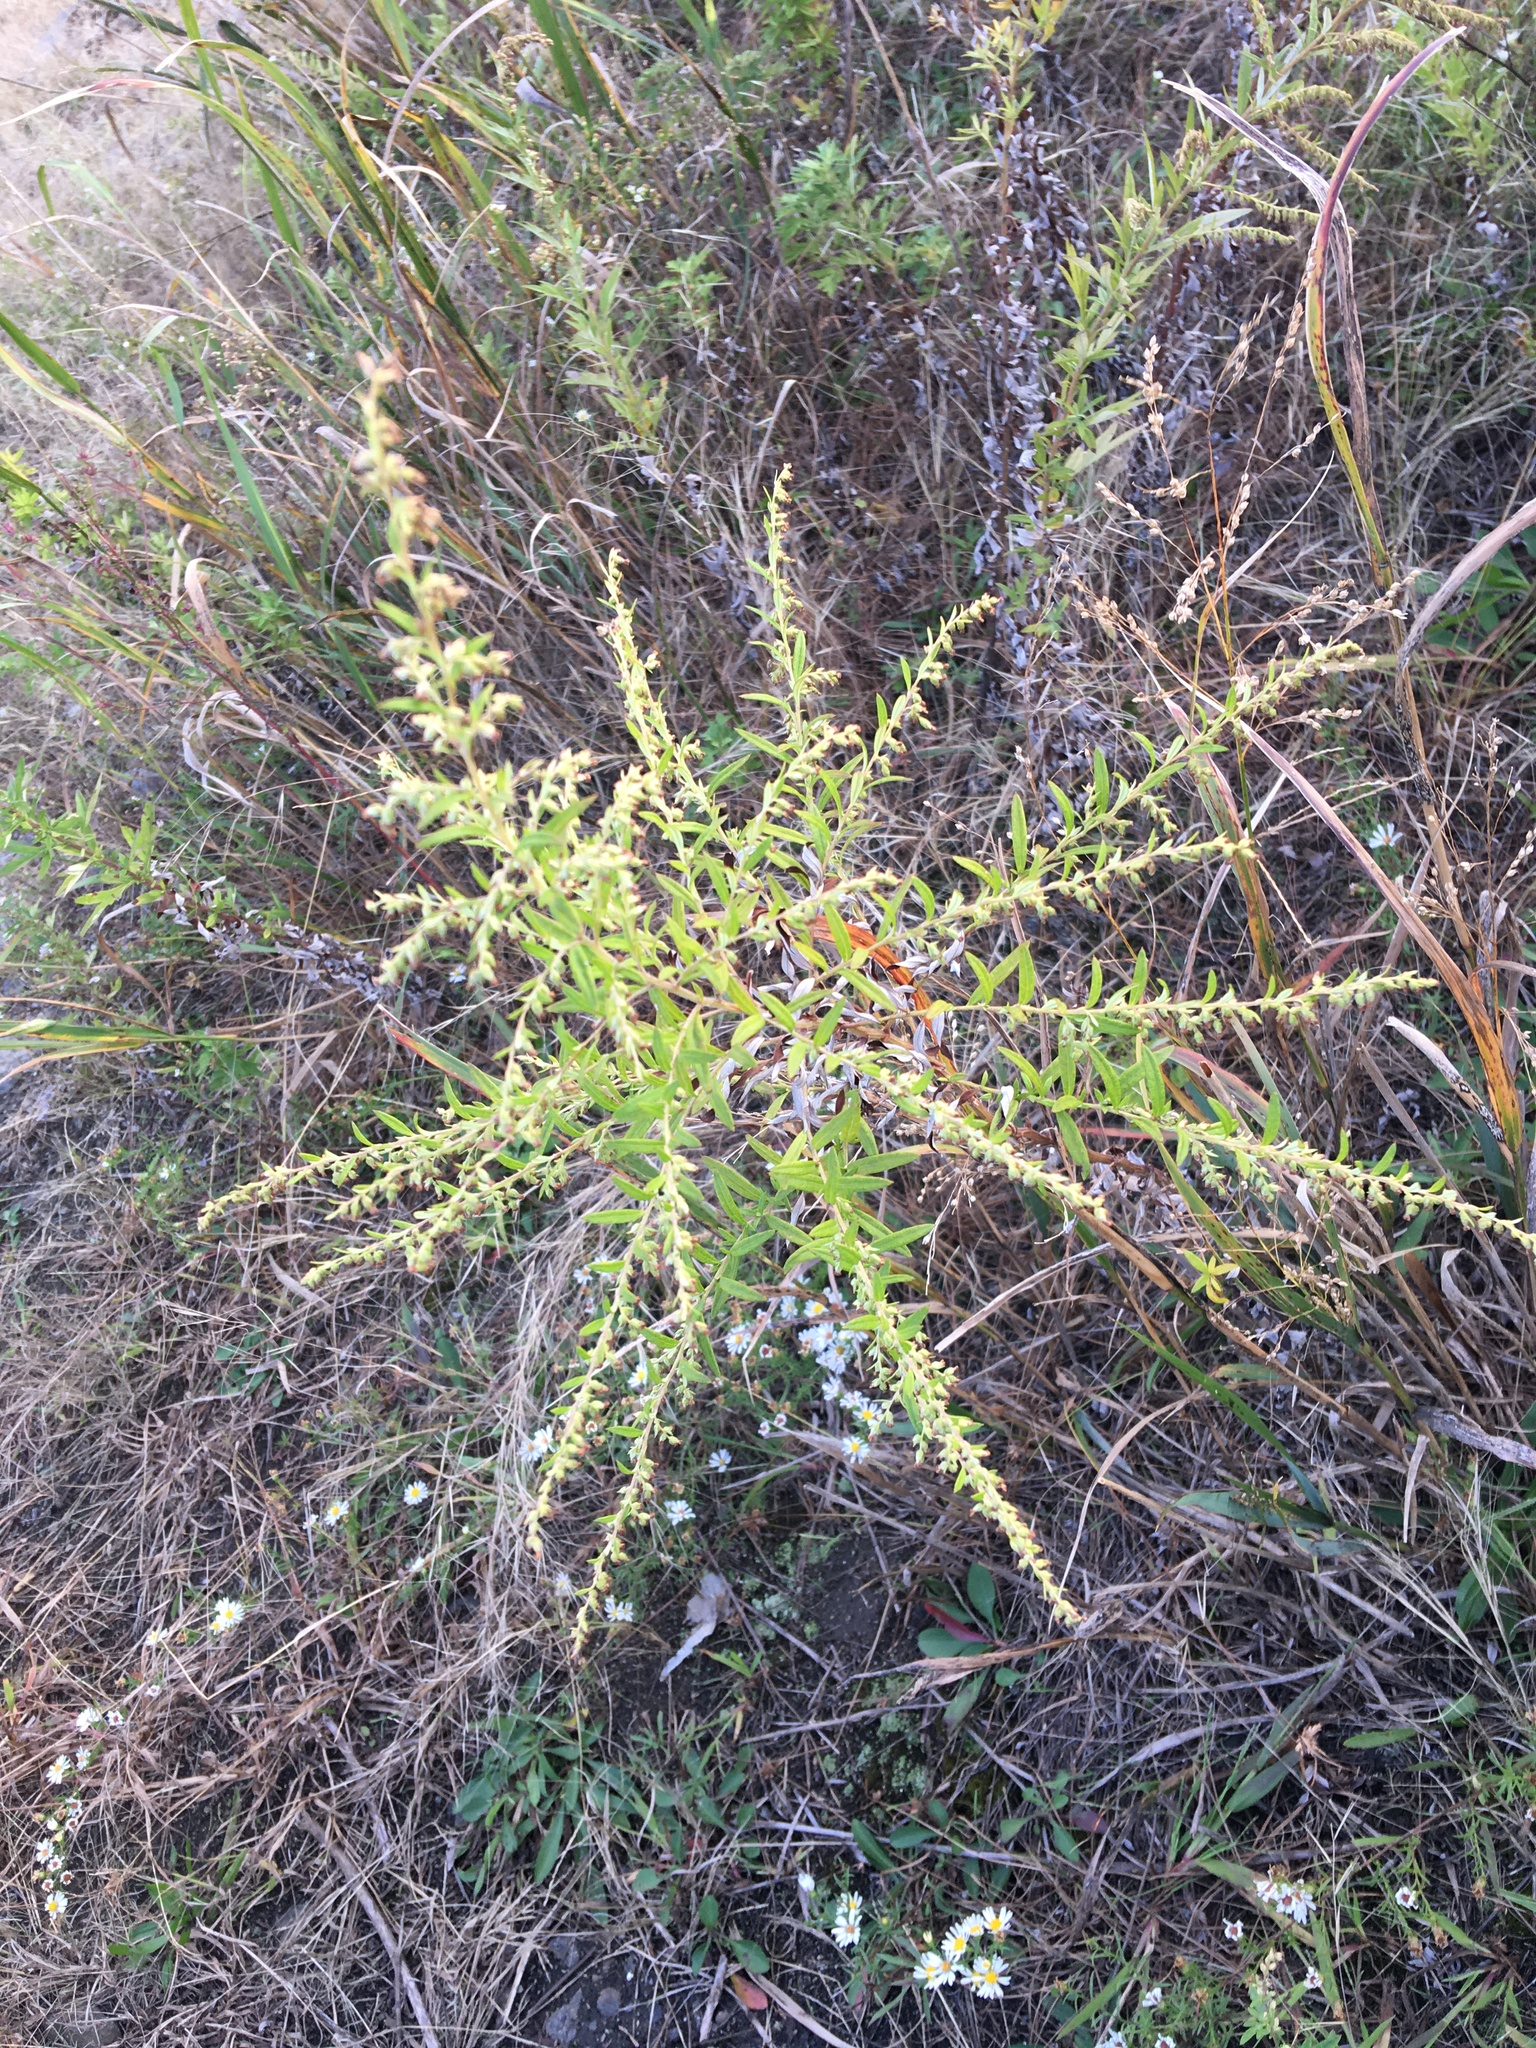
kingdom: Plantae
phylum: Tracheophyta
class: Magnoliopsida
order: Asterales
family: Asteraceae
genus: Artemisia
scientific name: Artemisia vulgaris
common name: Mugwort
